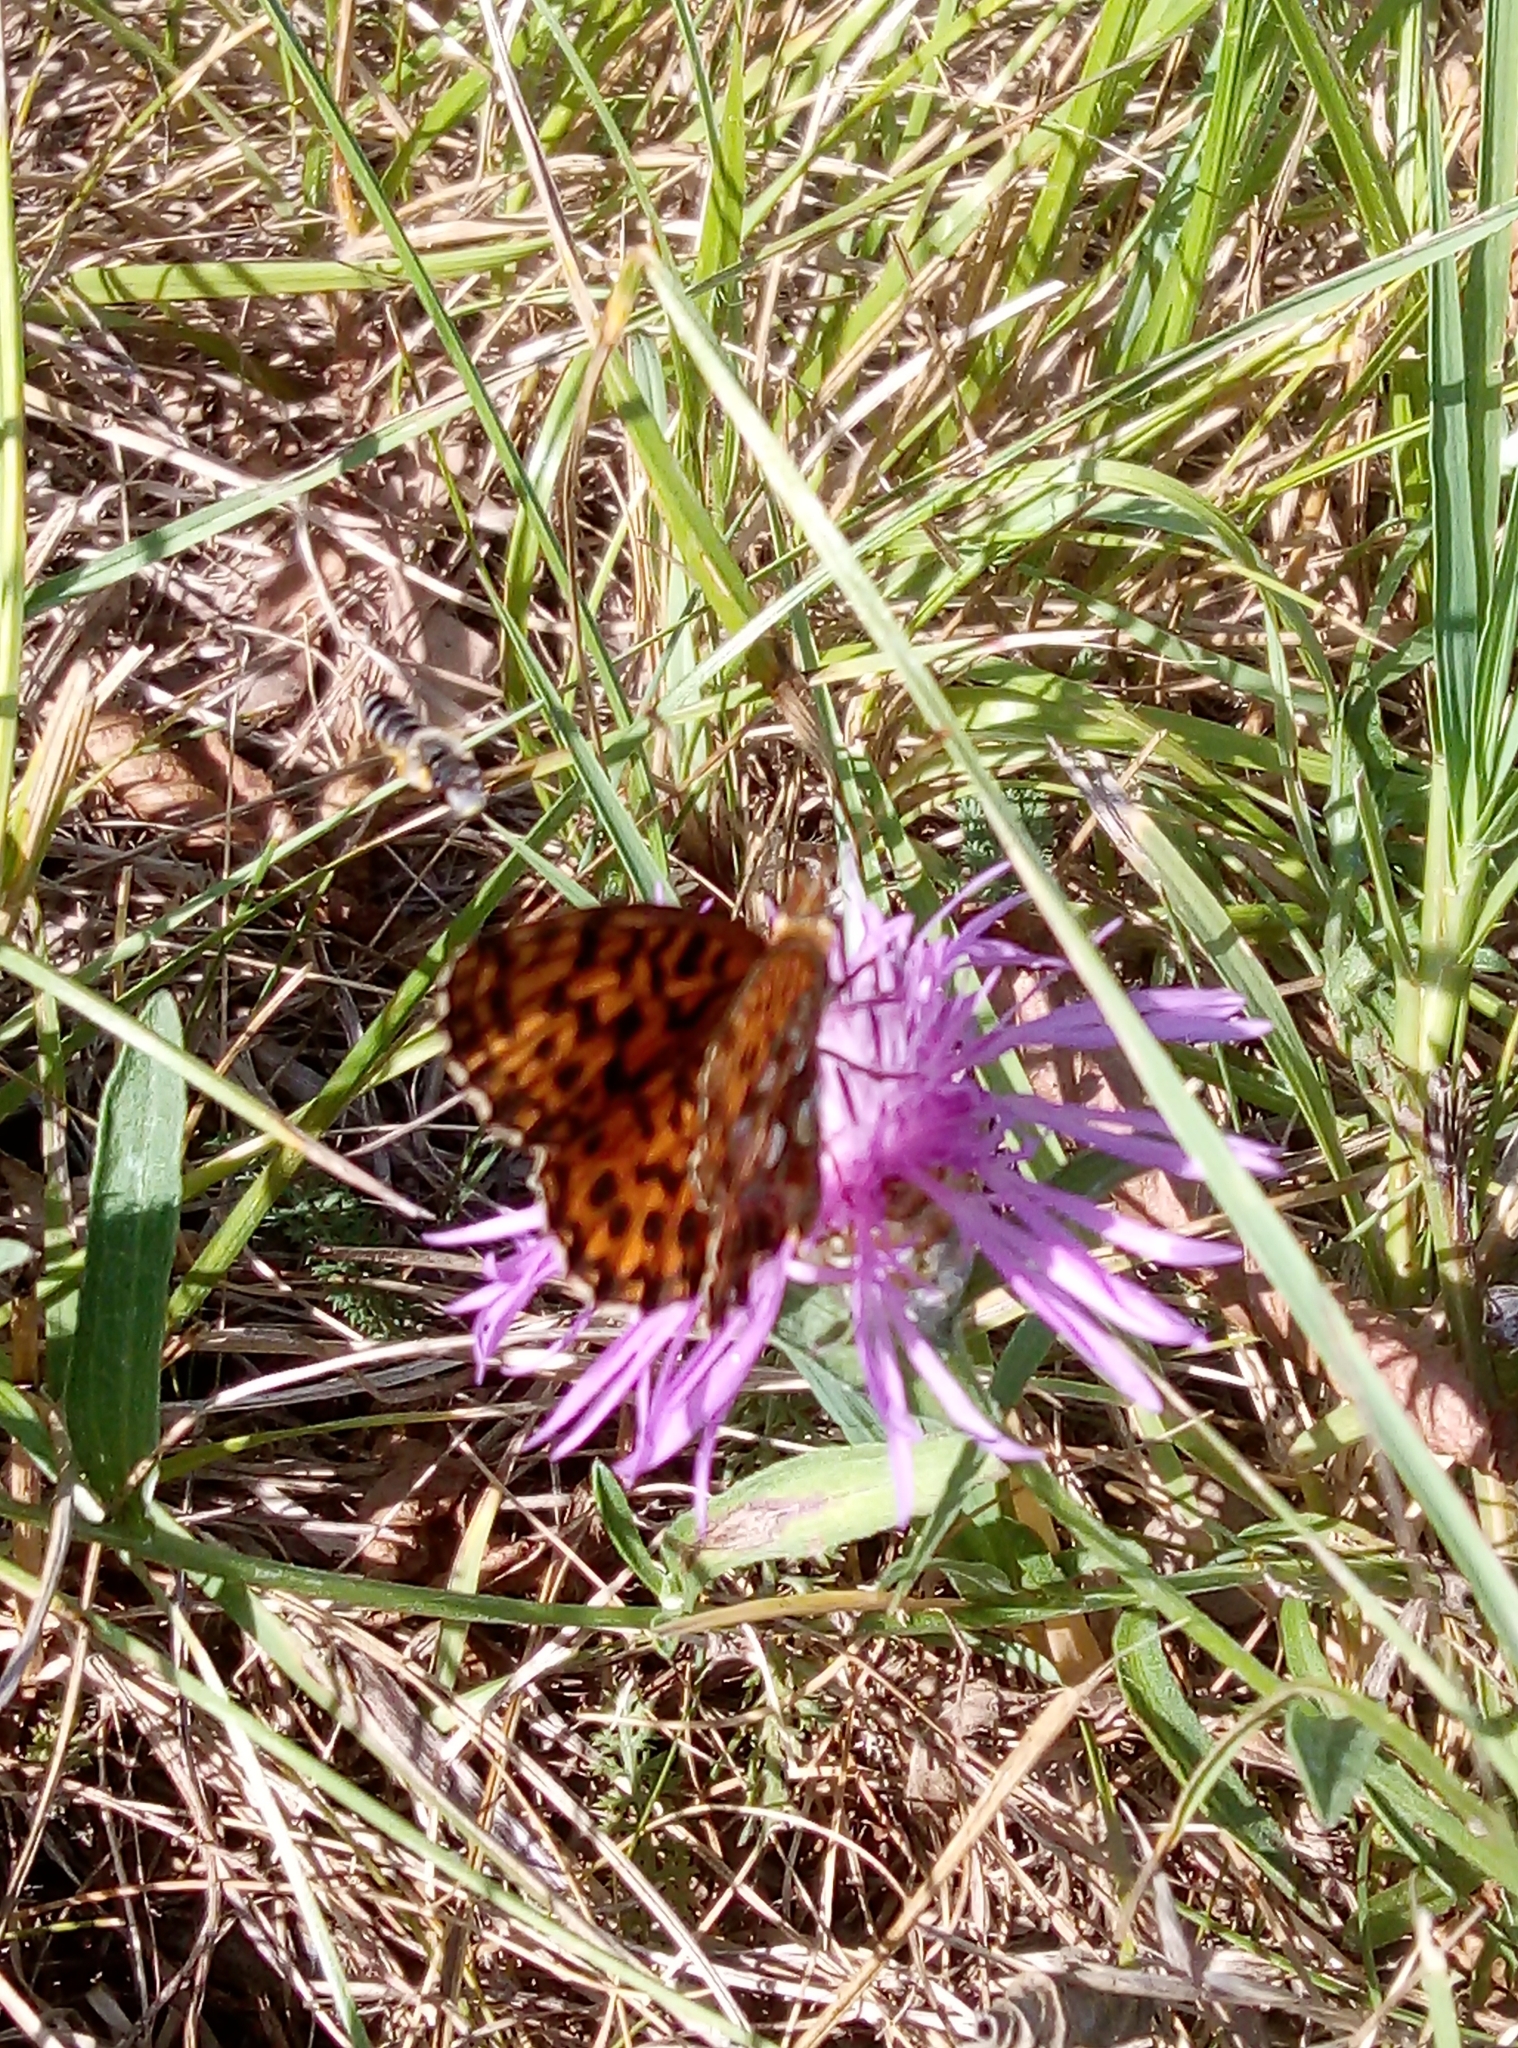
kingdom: Animalia
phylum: Arthropoda
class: Insecta
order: Lepidoptera
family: Nymphalidae
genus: Boloria
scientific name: Boloria dia
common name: Weaver's fritillary
